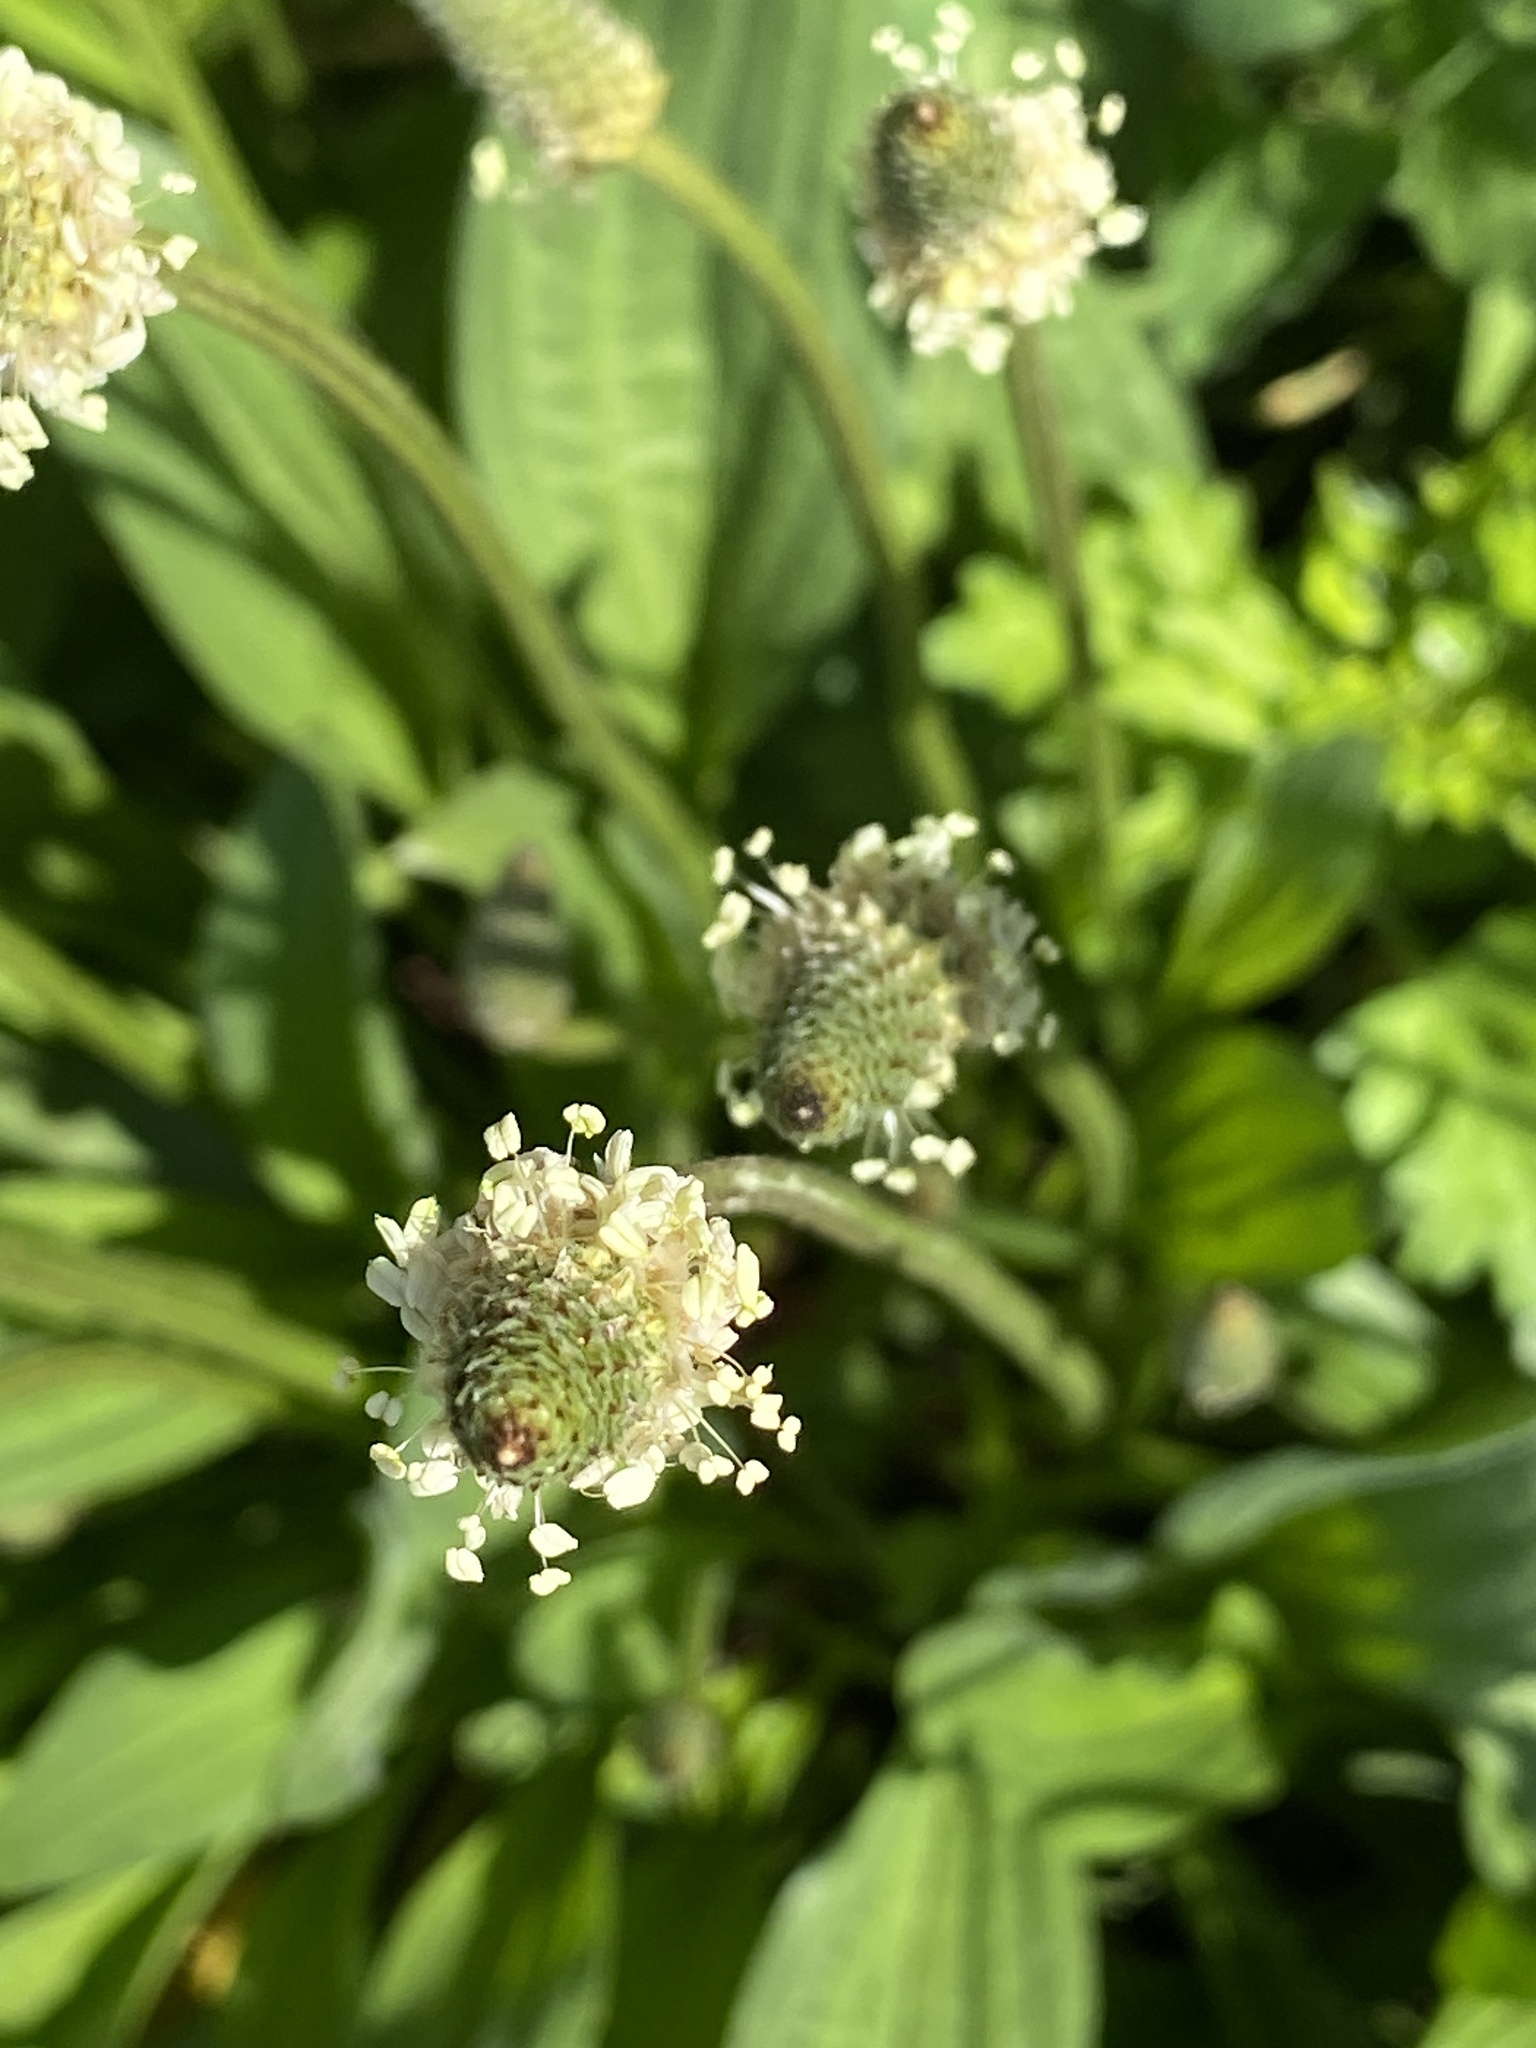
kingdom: Plantae
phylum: Tracheophyta
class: Magnoliopsida
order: Lamiales
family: Plantaginaceae
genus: Plantago
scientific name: Plantago lanceolata
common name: Ribwort plantain
